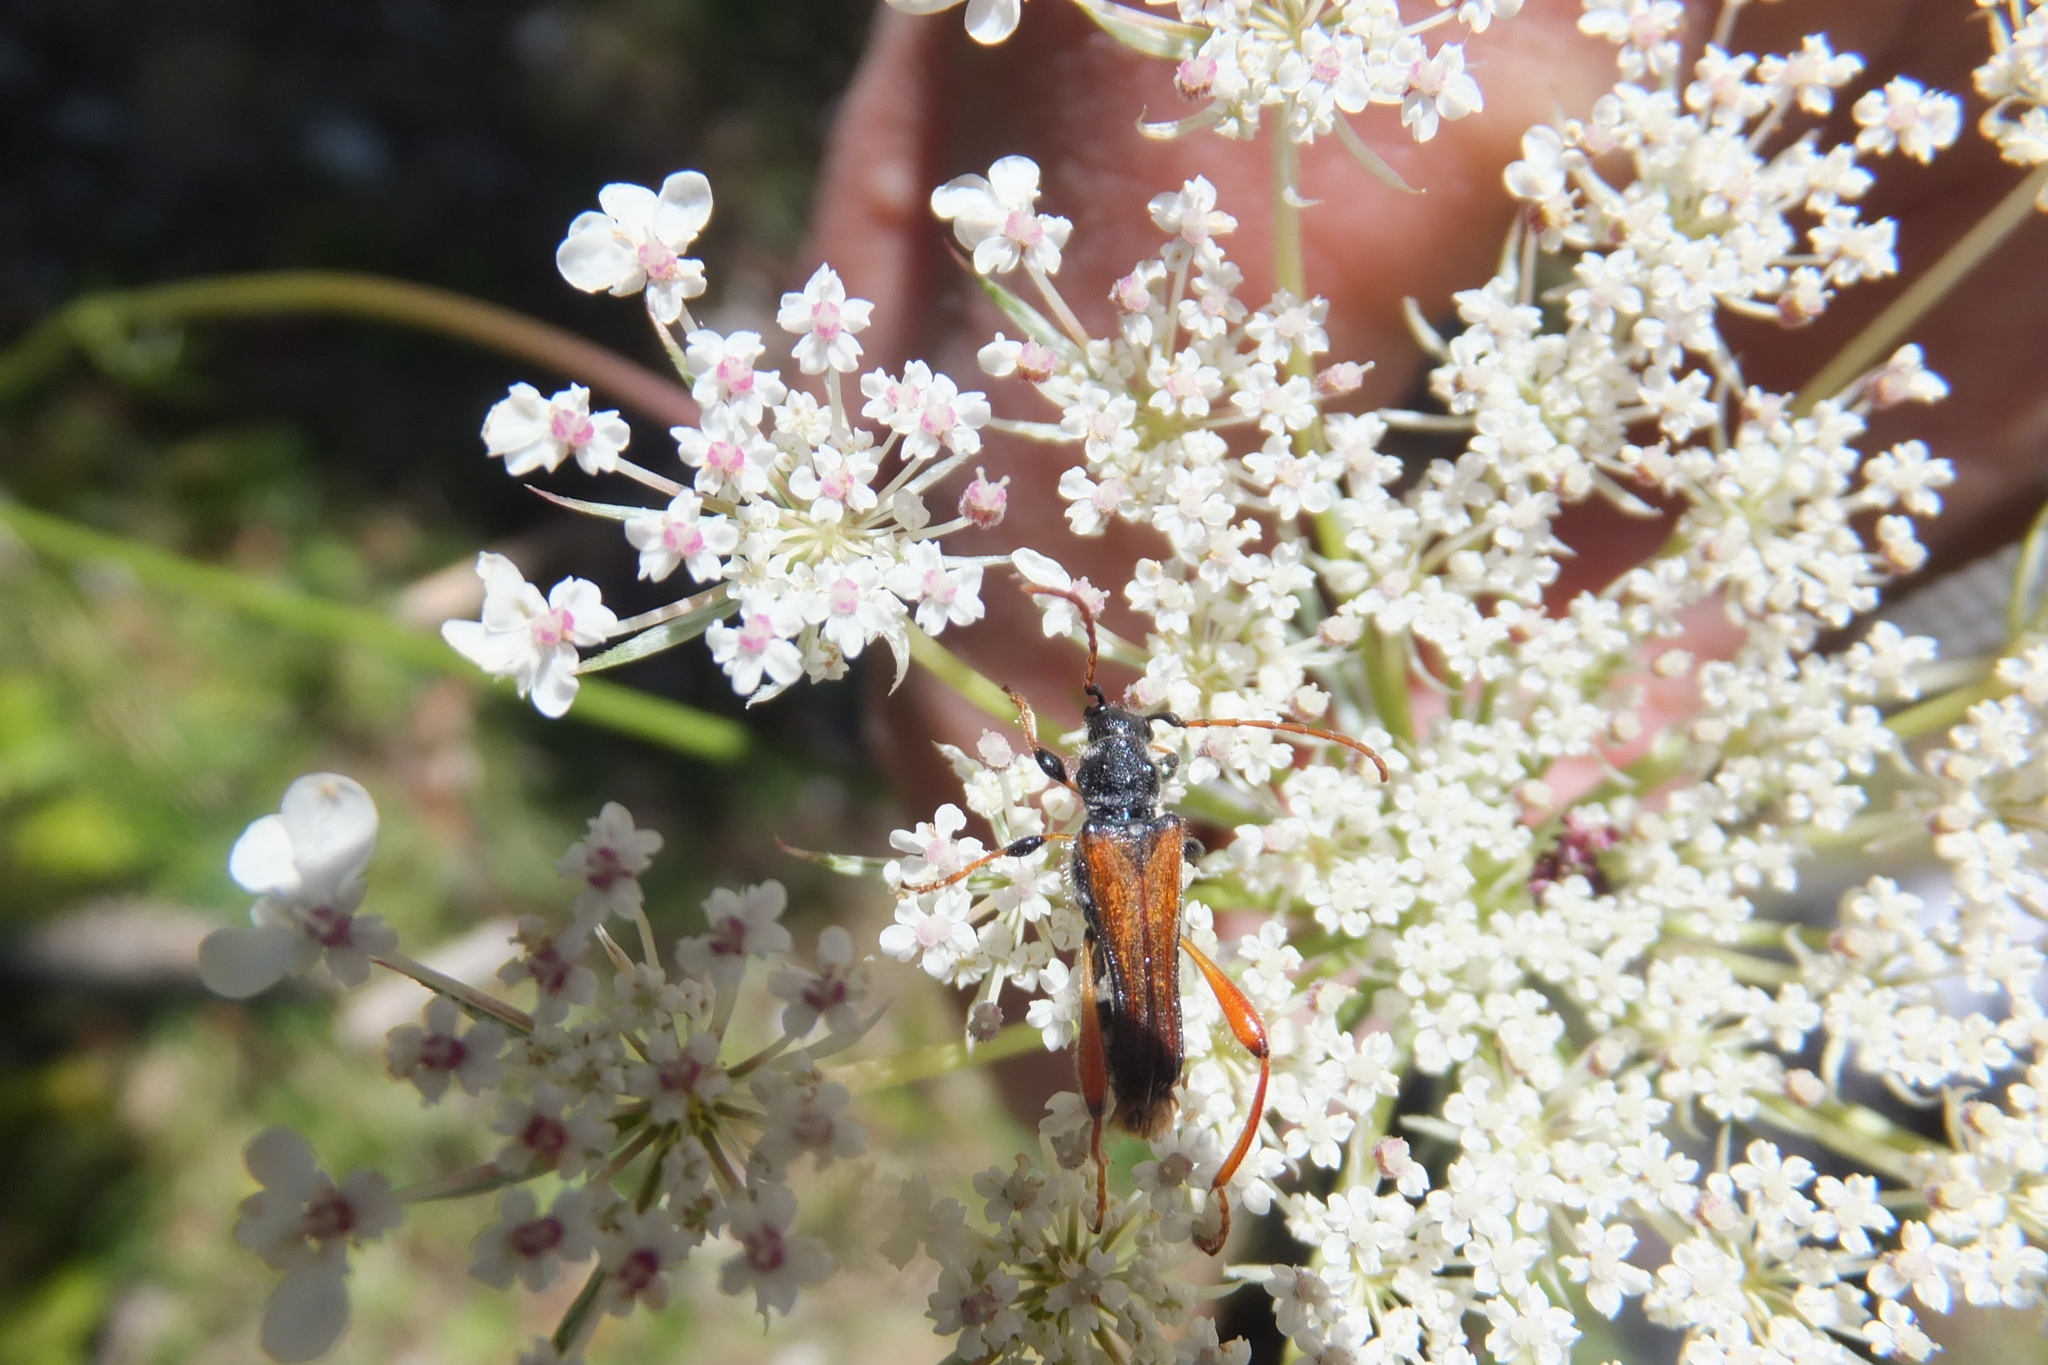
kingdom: Animalia
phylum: Arthropoda
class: Insecta
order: Coleoptera
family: Cerambycidae
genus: Stenopterus
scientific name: Stenopterus rufus
